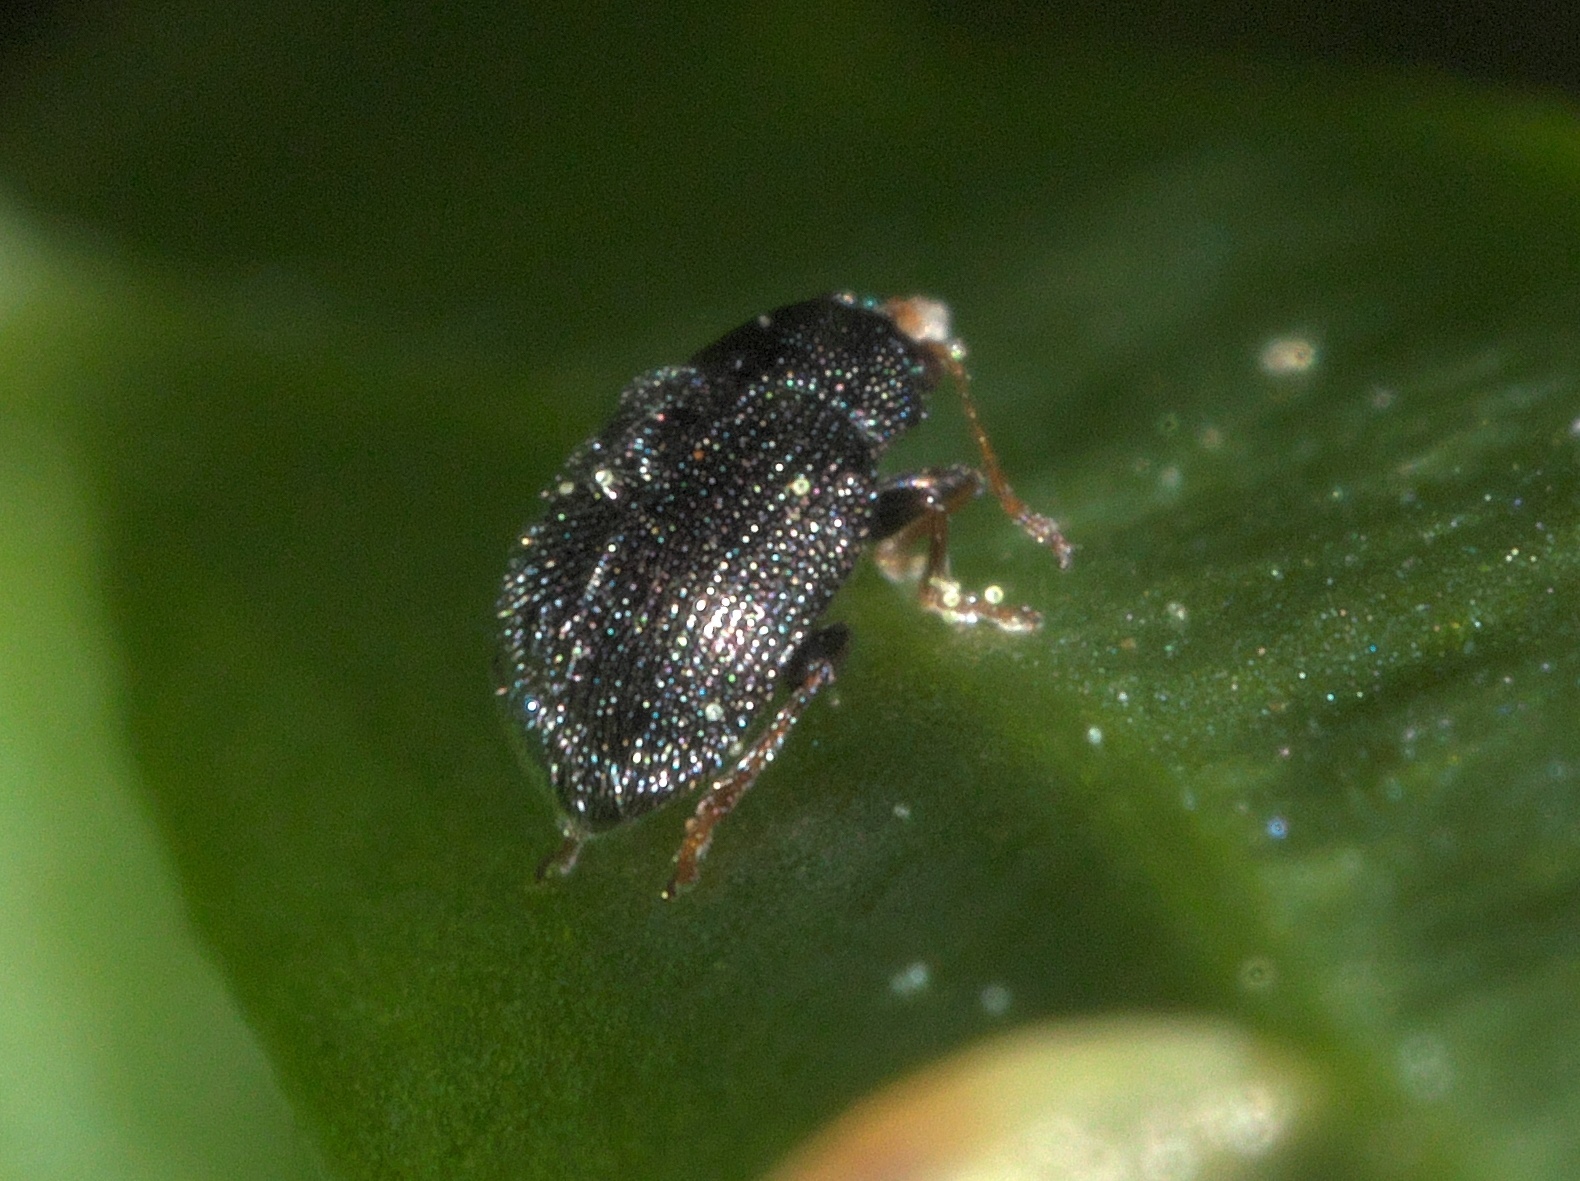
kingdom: Animalia
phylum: Arthropoda
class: Insecta
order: Coleoptera
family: Chrysomelidae
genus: Epitrix
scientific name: Epitrix fuscula
